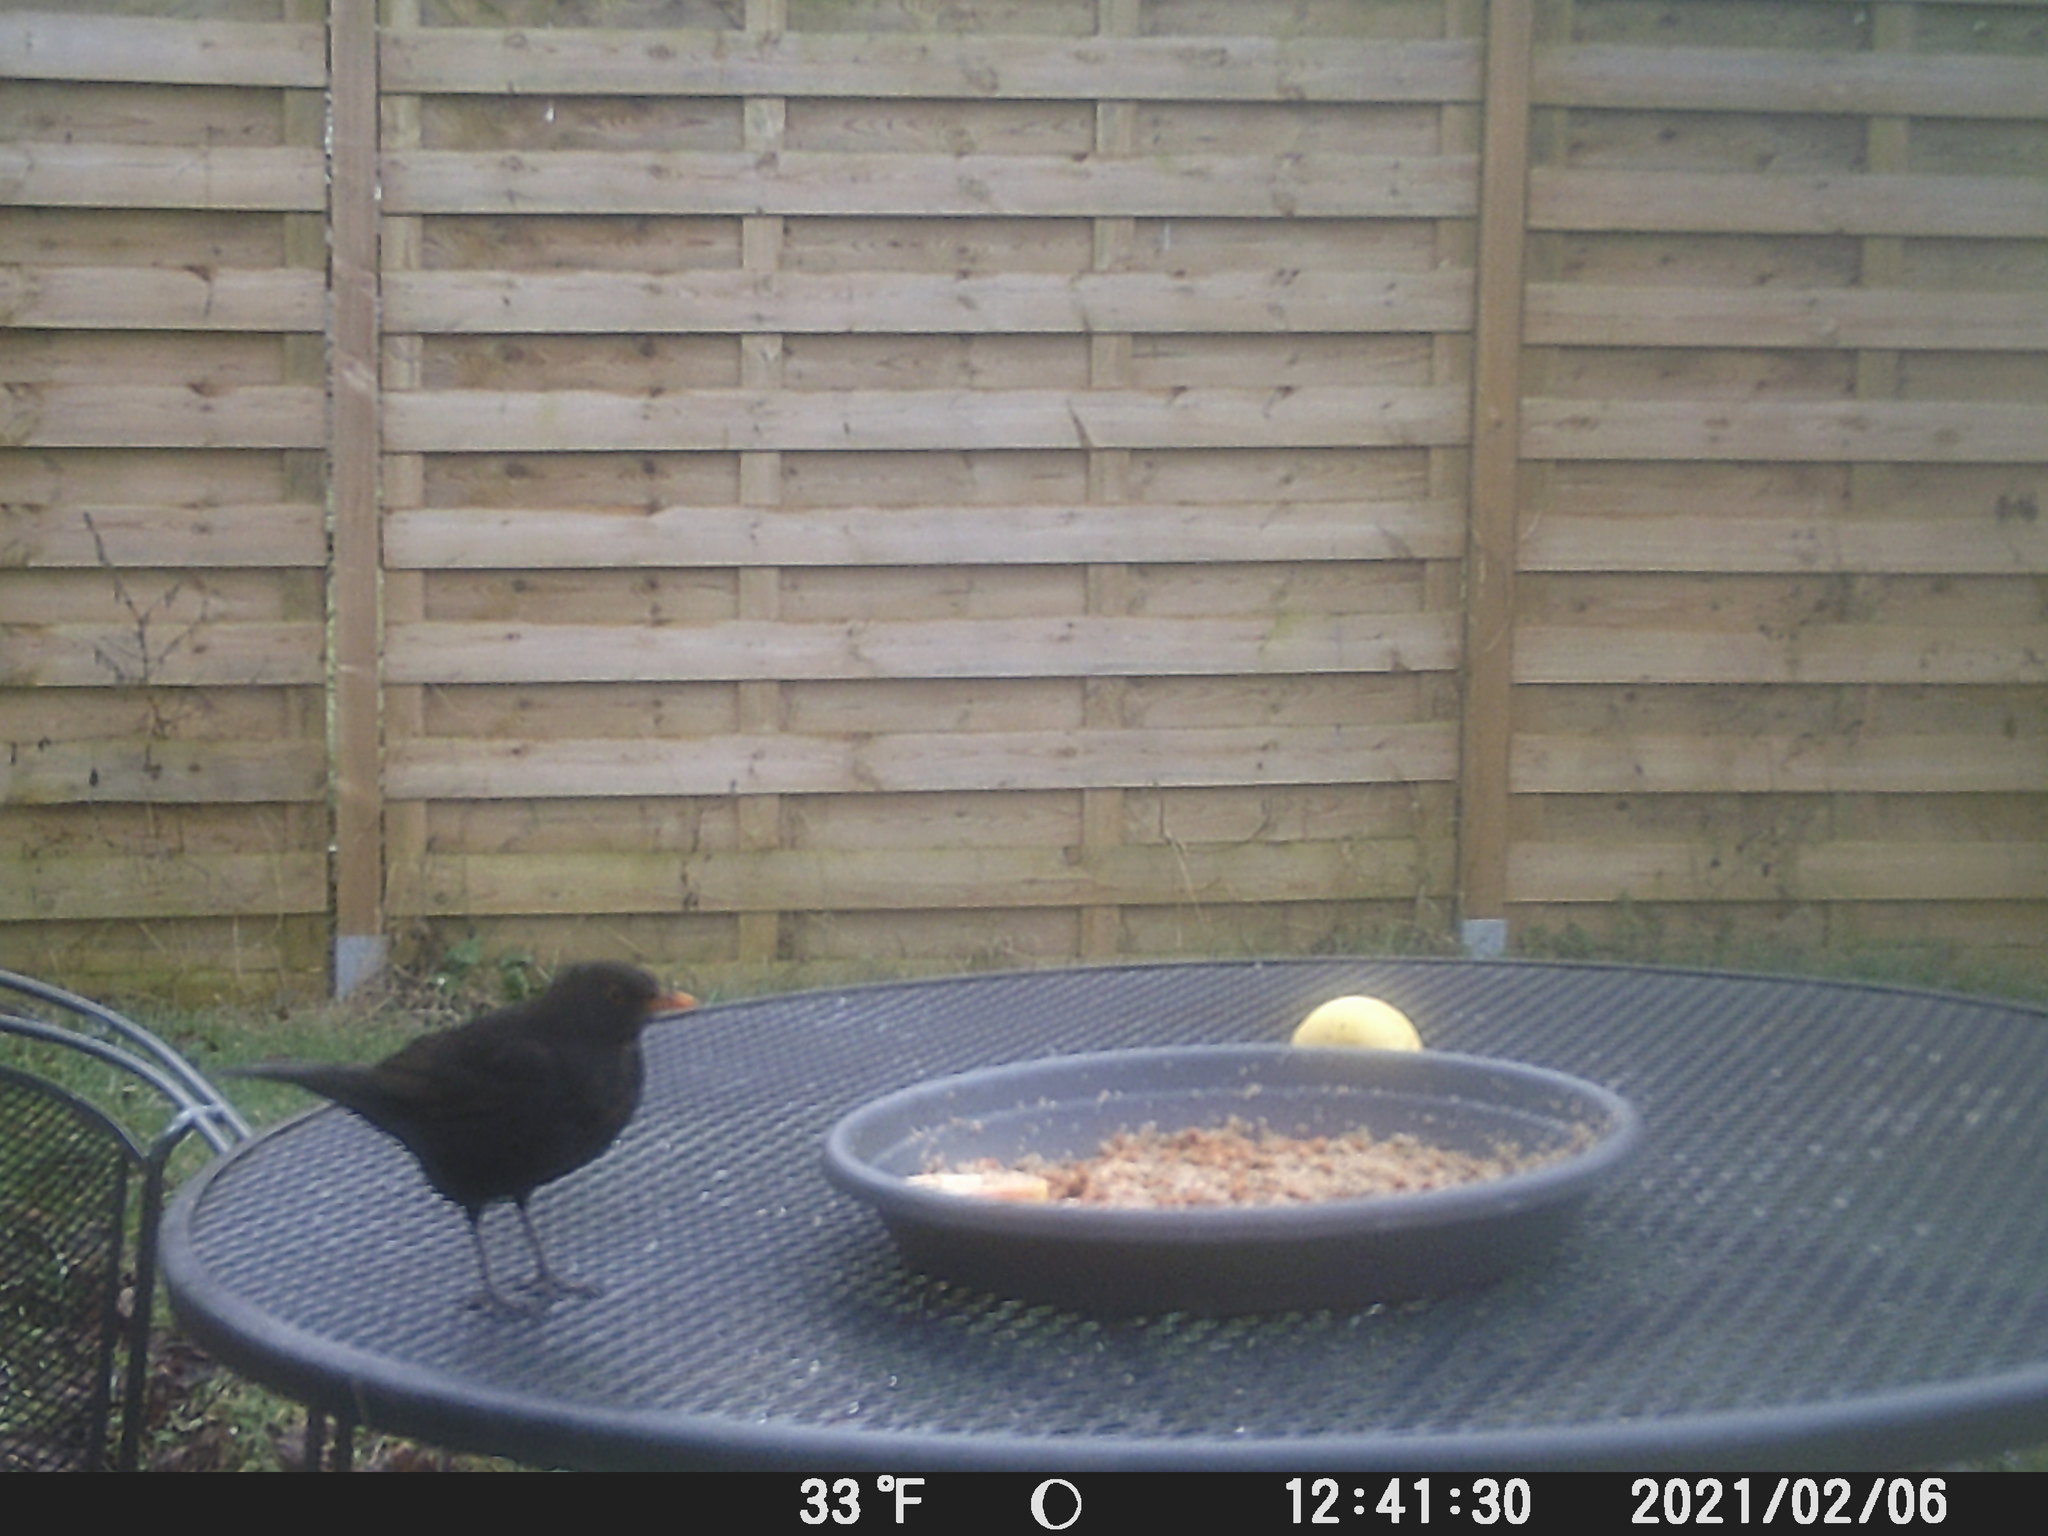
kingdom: Animalia
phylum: Chordata
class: Aves
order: Passeriformes
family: Turdidae
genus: Turdus
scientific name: Turdus merula
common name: Common blackbird
